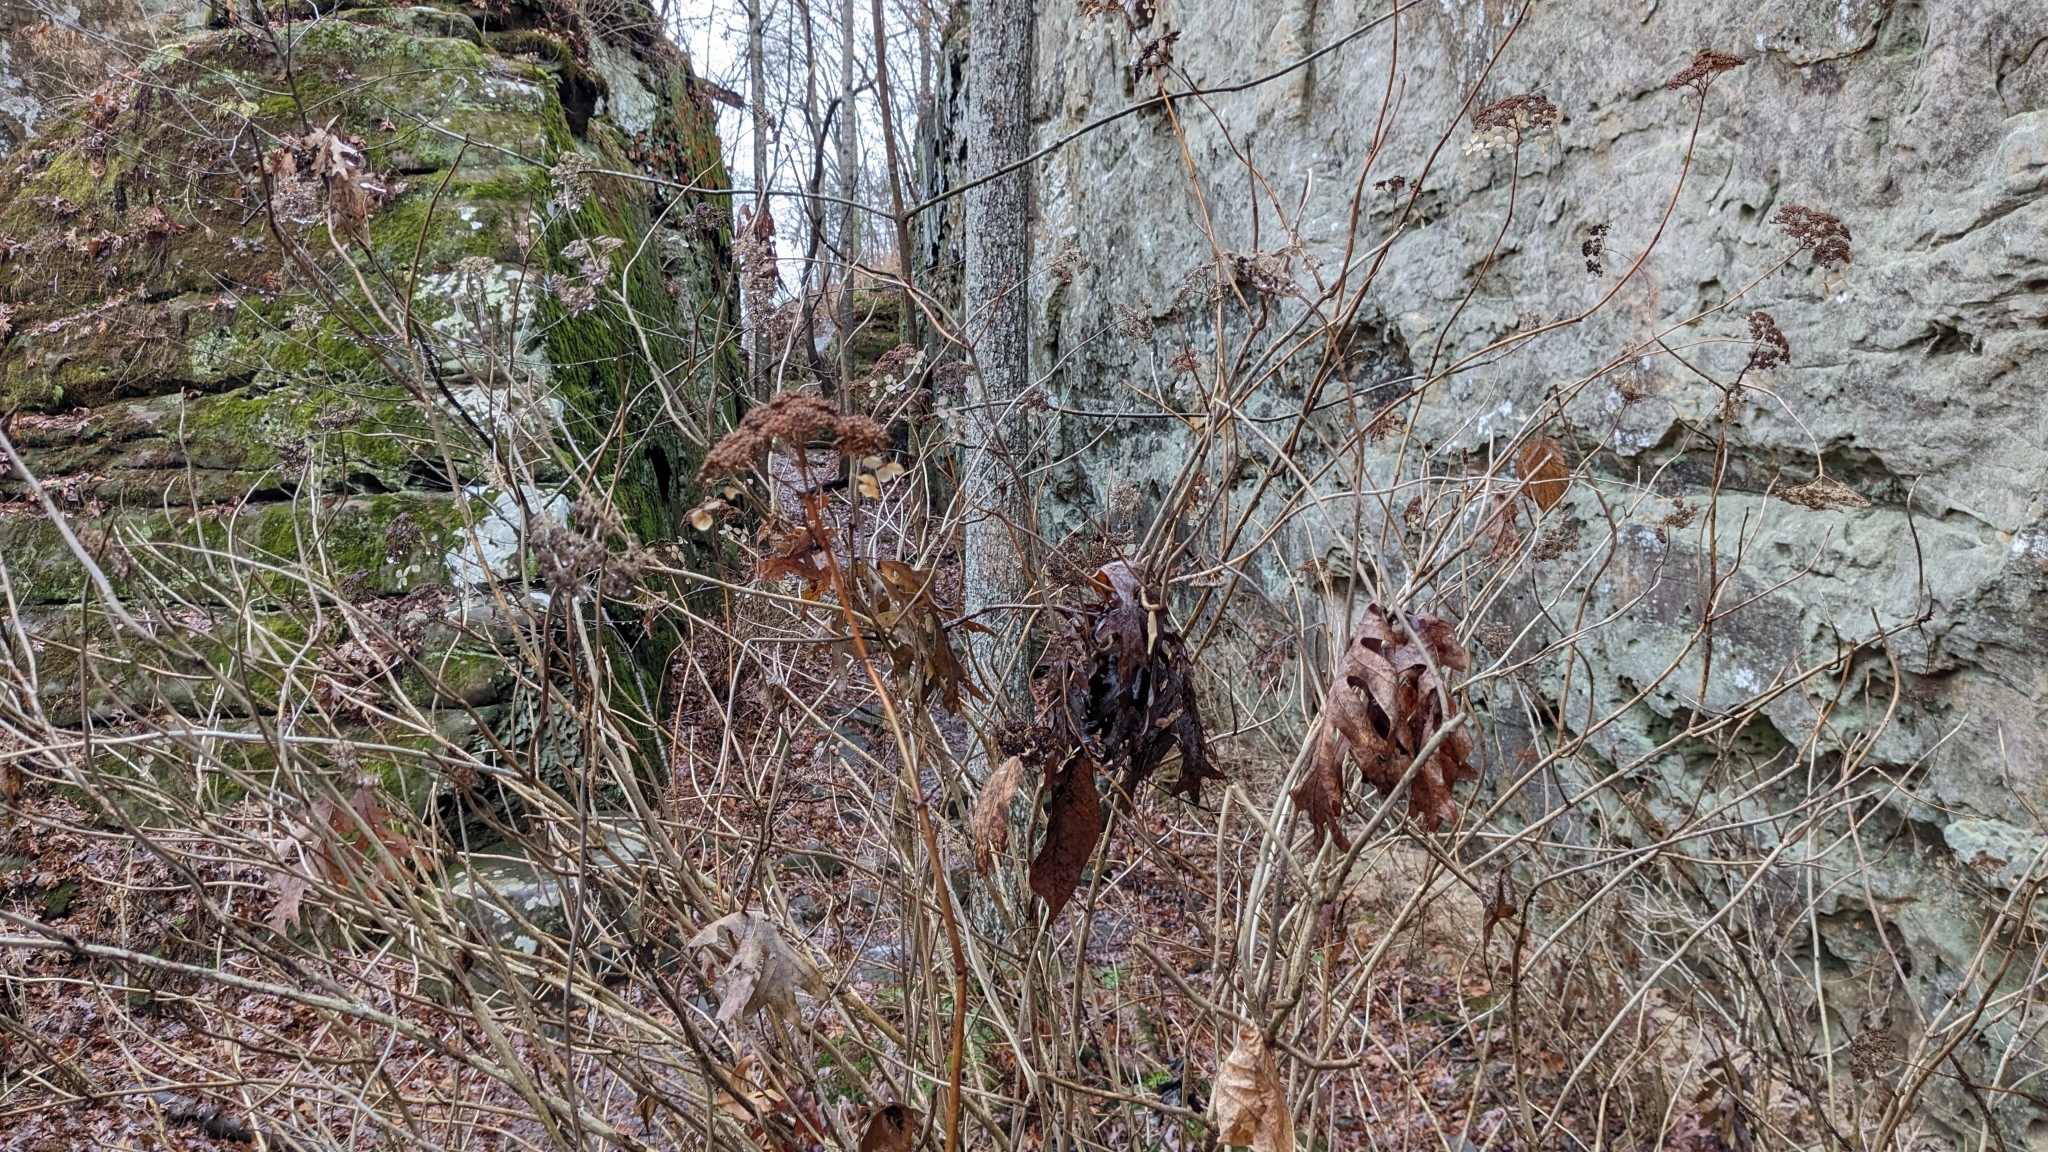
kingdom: Plantae
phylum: Tracheophyta
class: Magnoliopsida
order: Cornales
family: Hydrangeaceae
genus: Hydrangea
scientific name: Hydrangea arborescens
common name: Sevenbark
